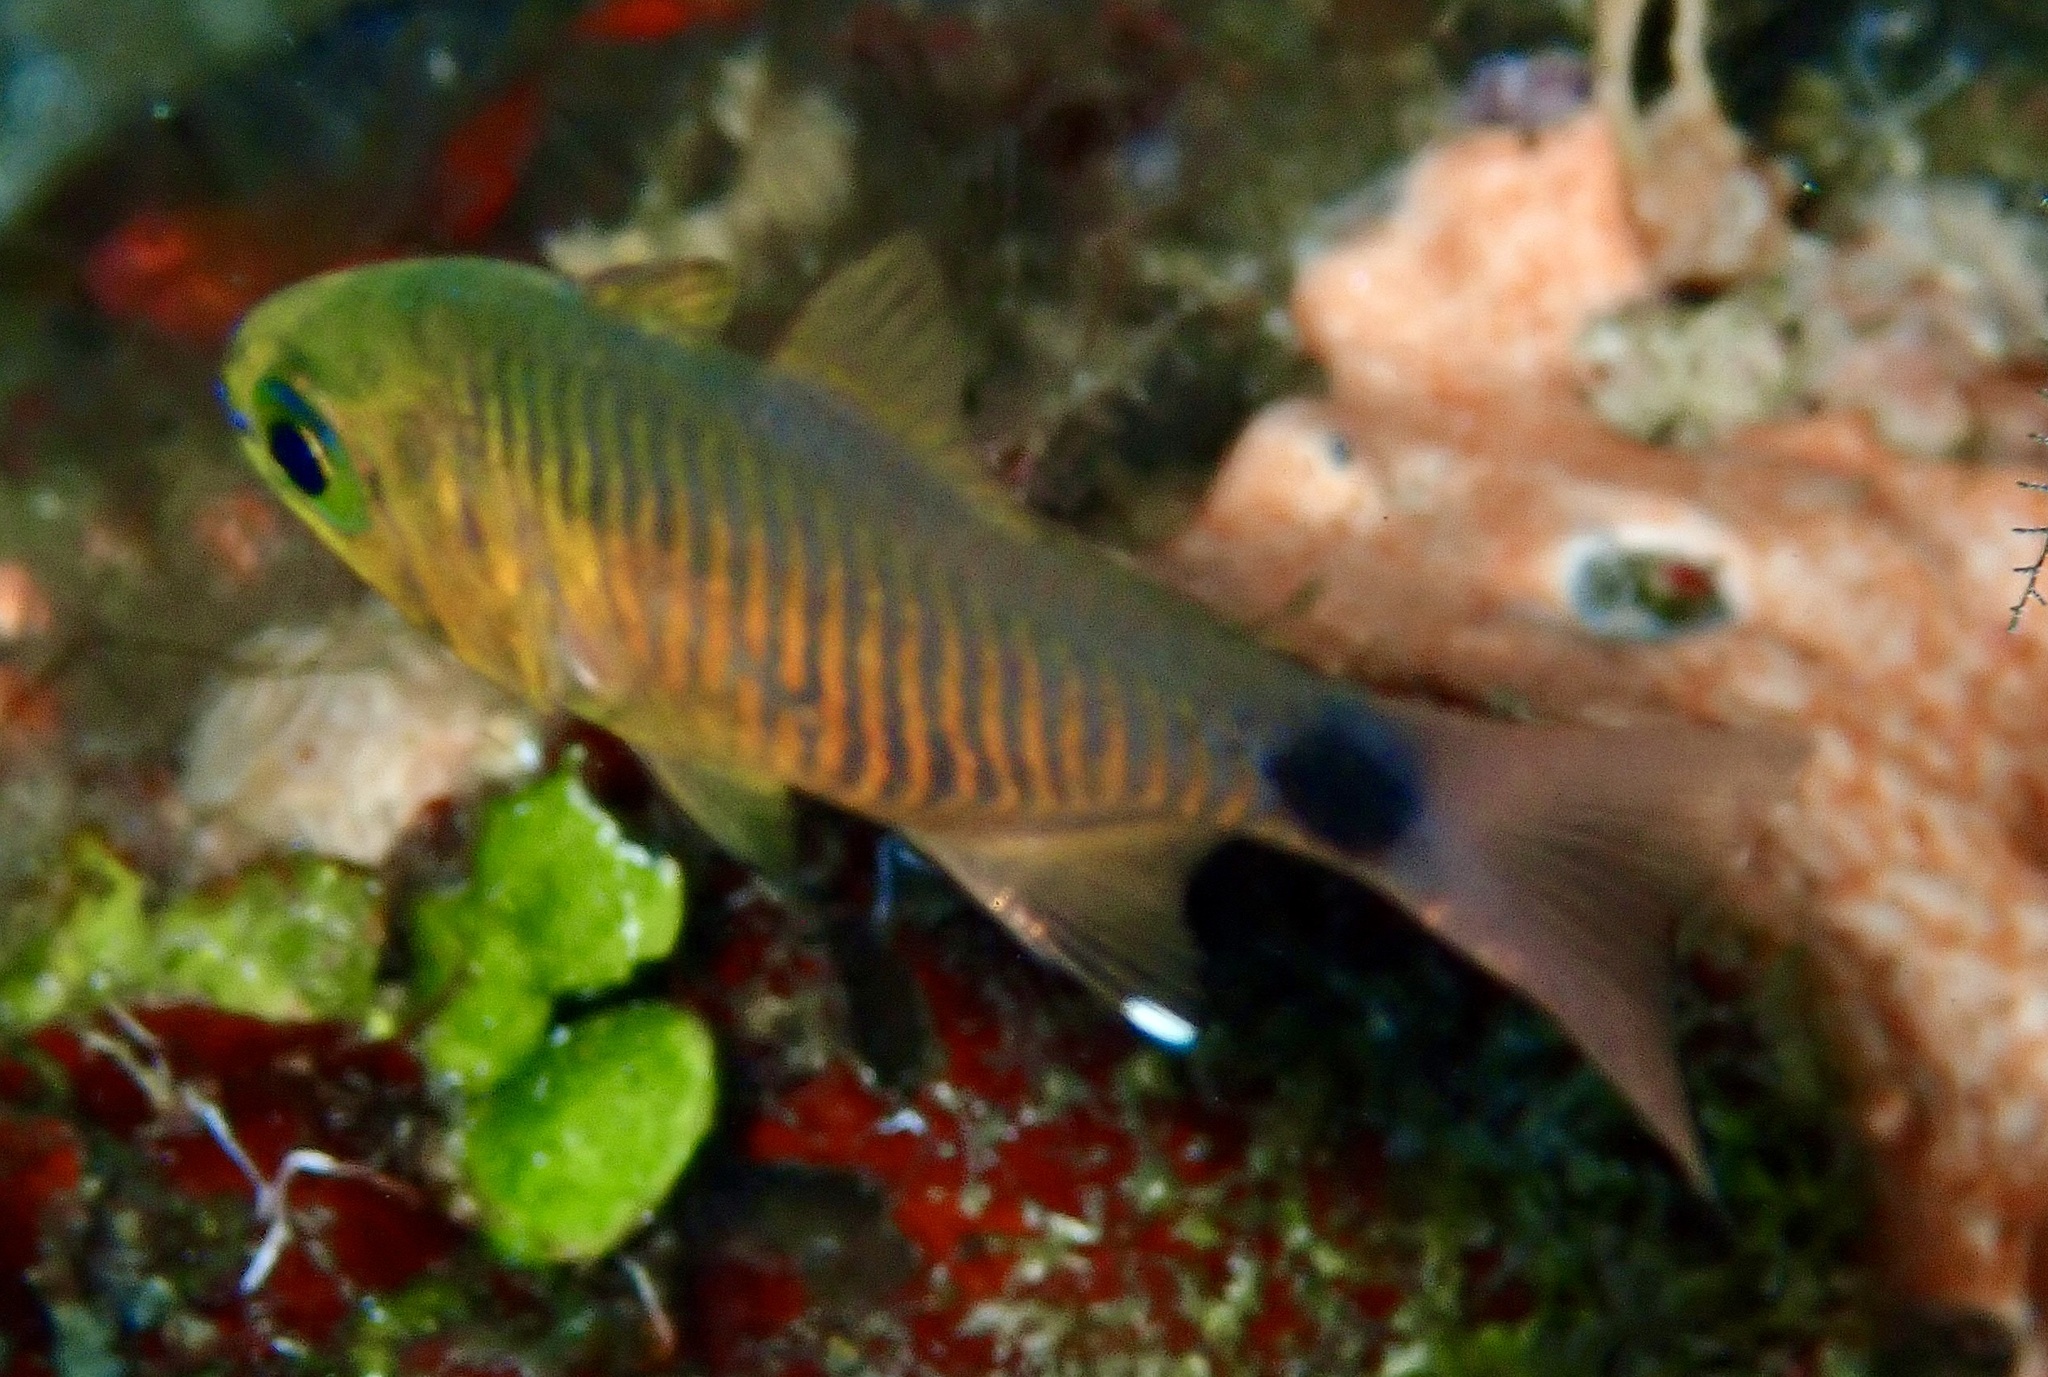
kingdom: Animalia
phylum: Chordata
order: Perciformes
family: Apogonidae
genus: Taeniamia
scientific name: Taeniamia fucata
